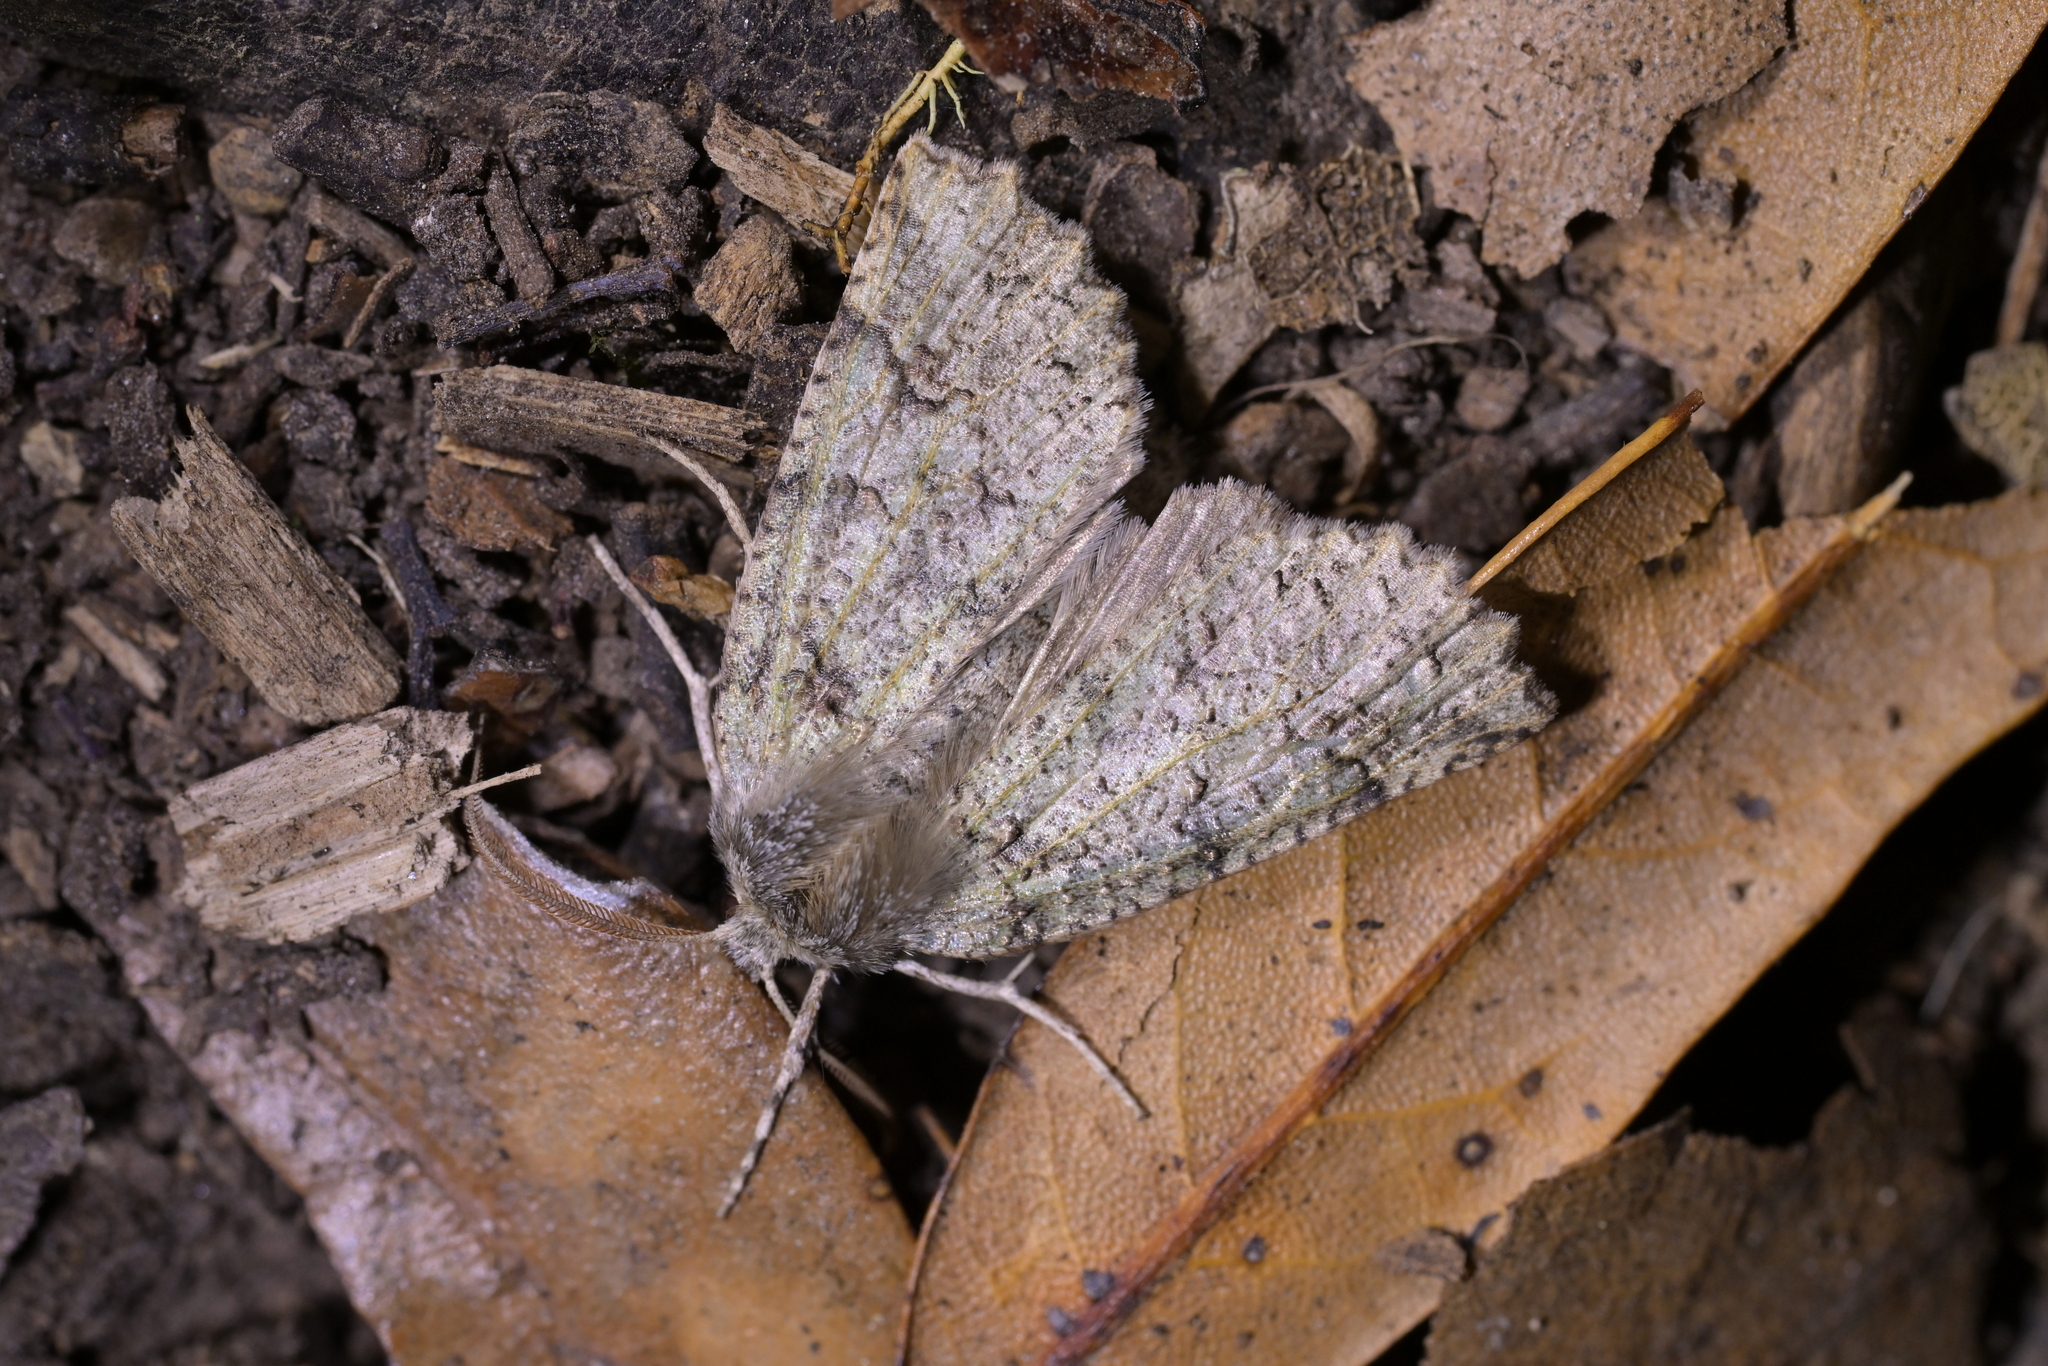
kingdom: Animalia
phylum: Arthropoda
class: Insecta
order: Lepidoptera
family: Geometridae
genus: Declana
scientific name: Declana floccosa
